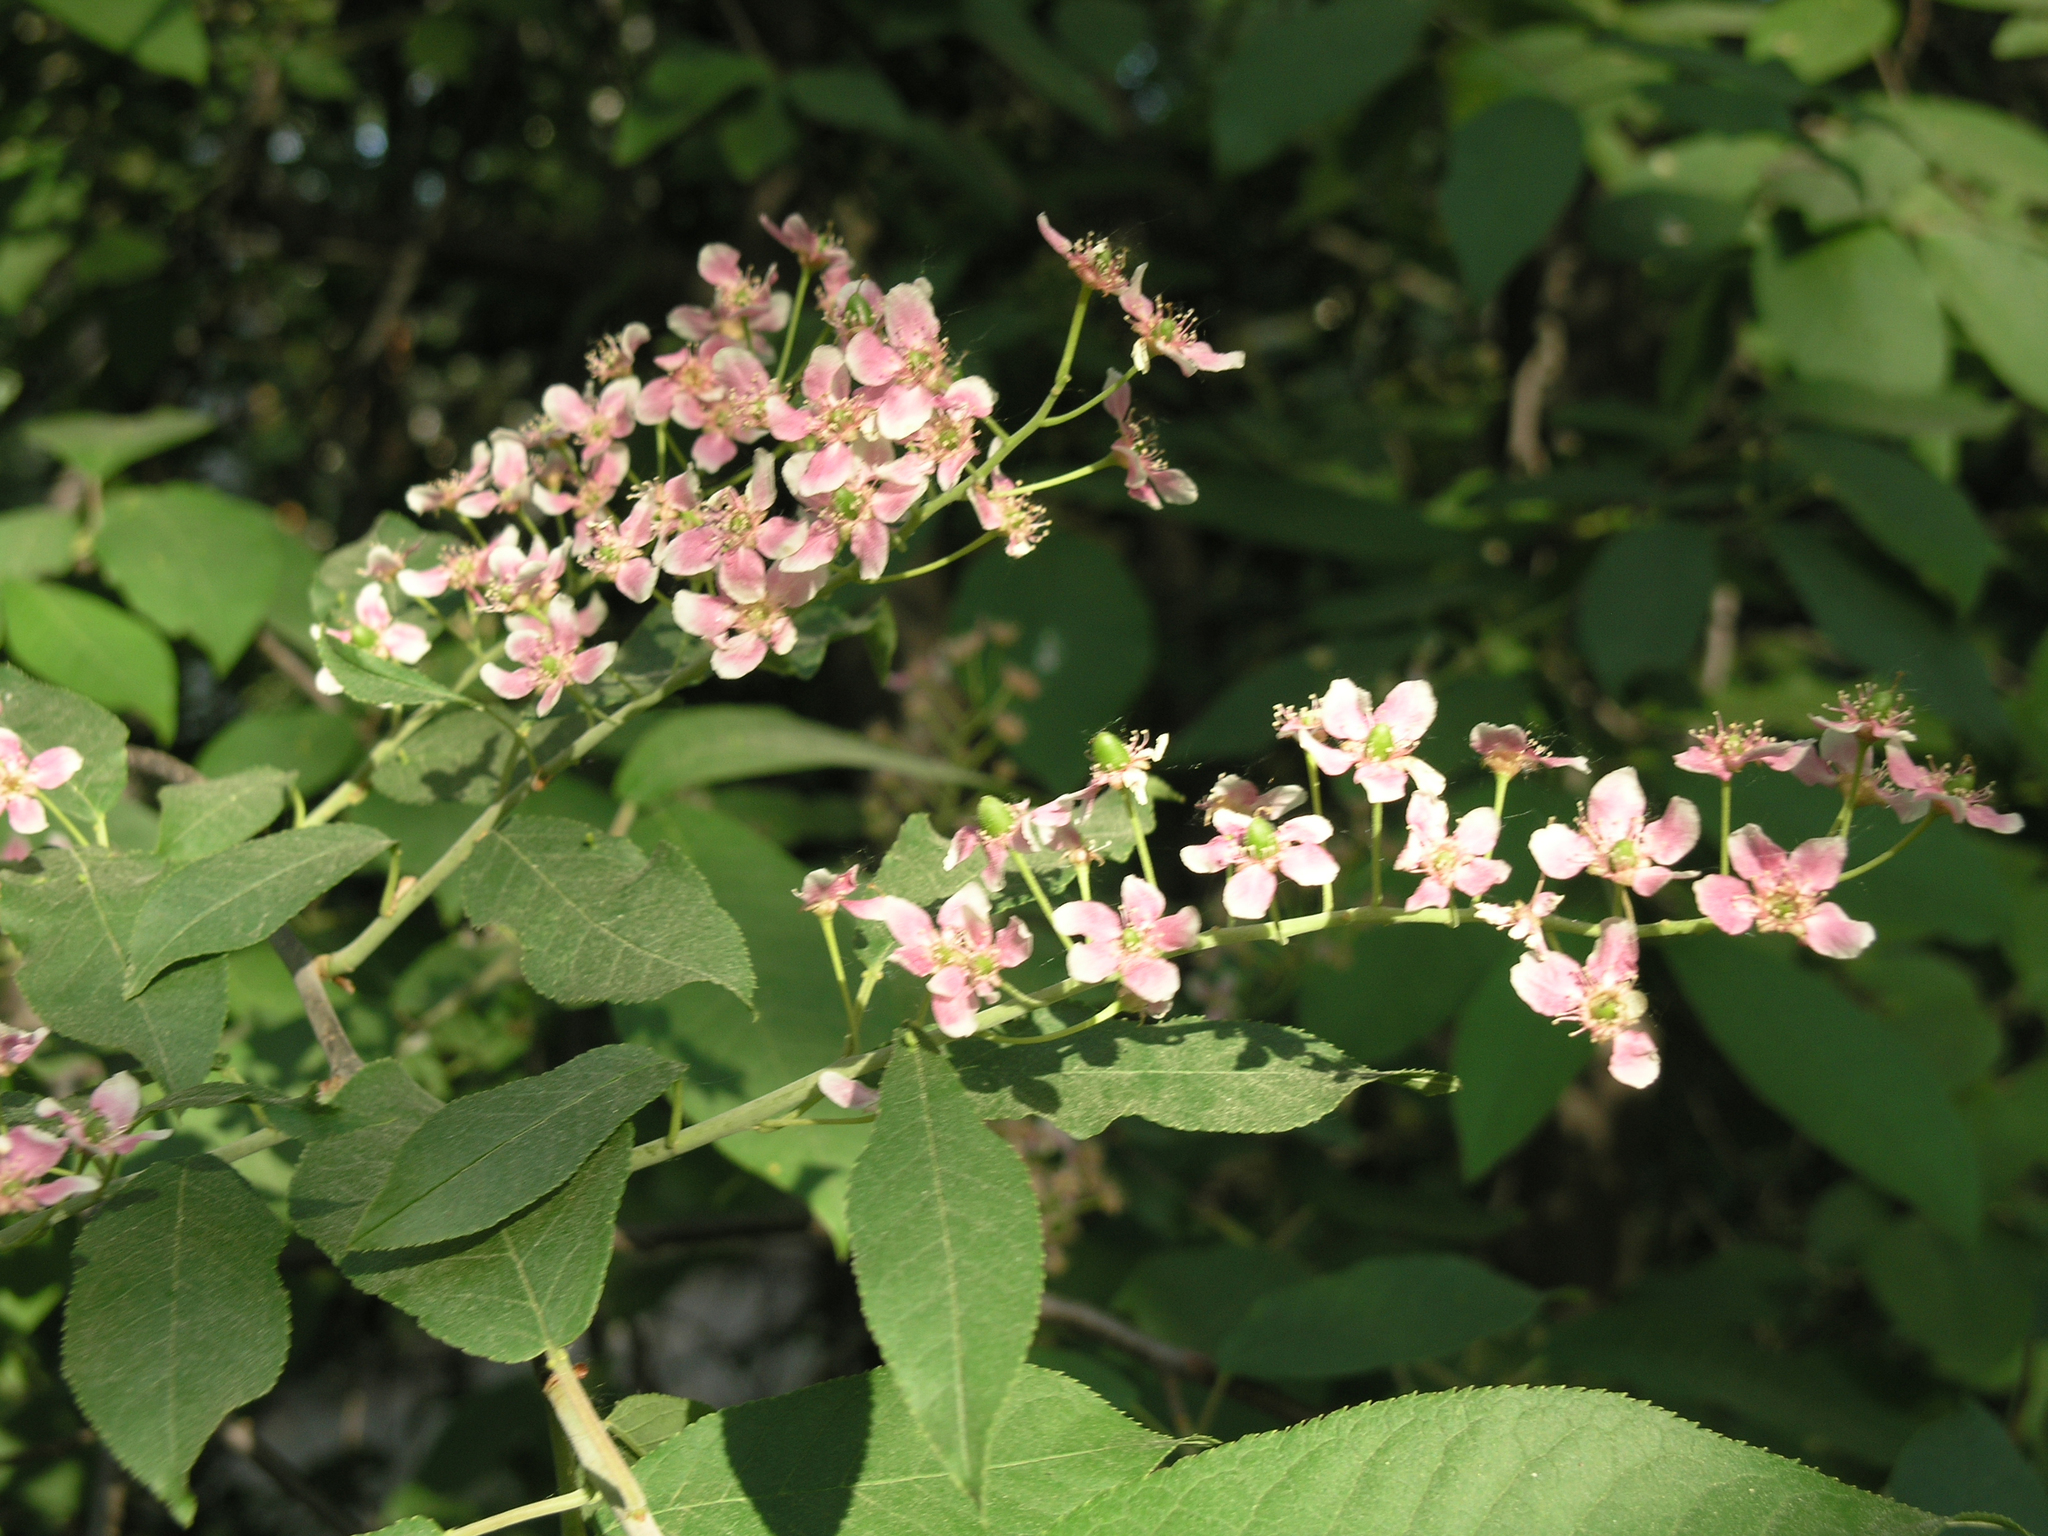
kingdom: Plantae
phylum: Tracheophyta
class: Magnoliopsida
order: Rosales
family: Rosaceae
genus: Prunus
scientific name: Prunus padus
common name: Bird cherry
